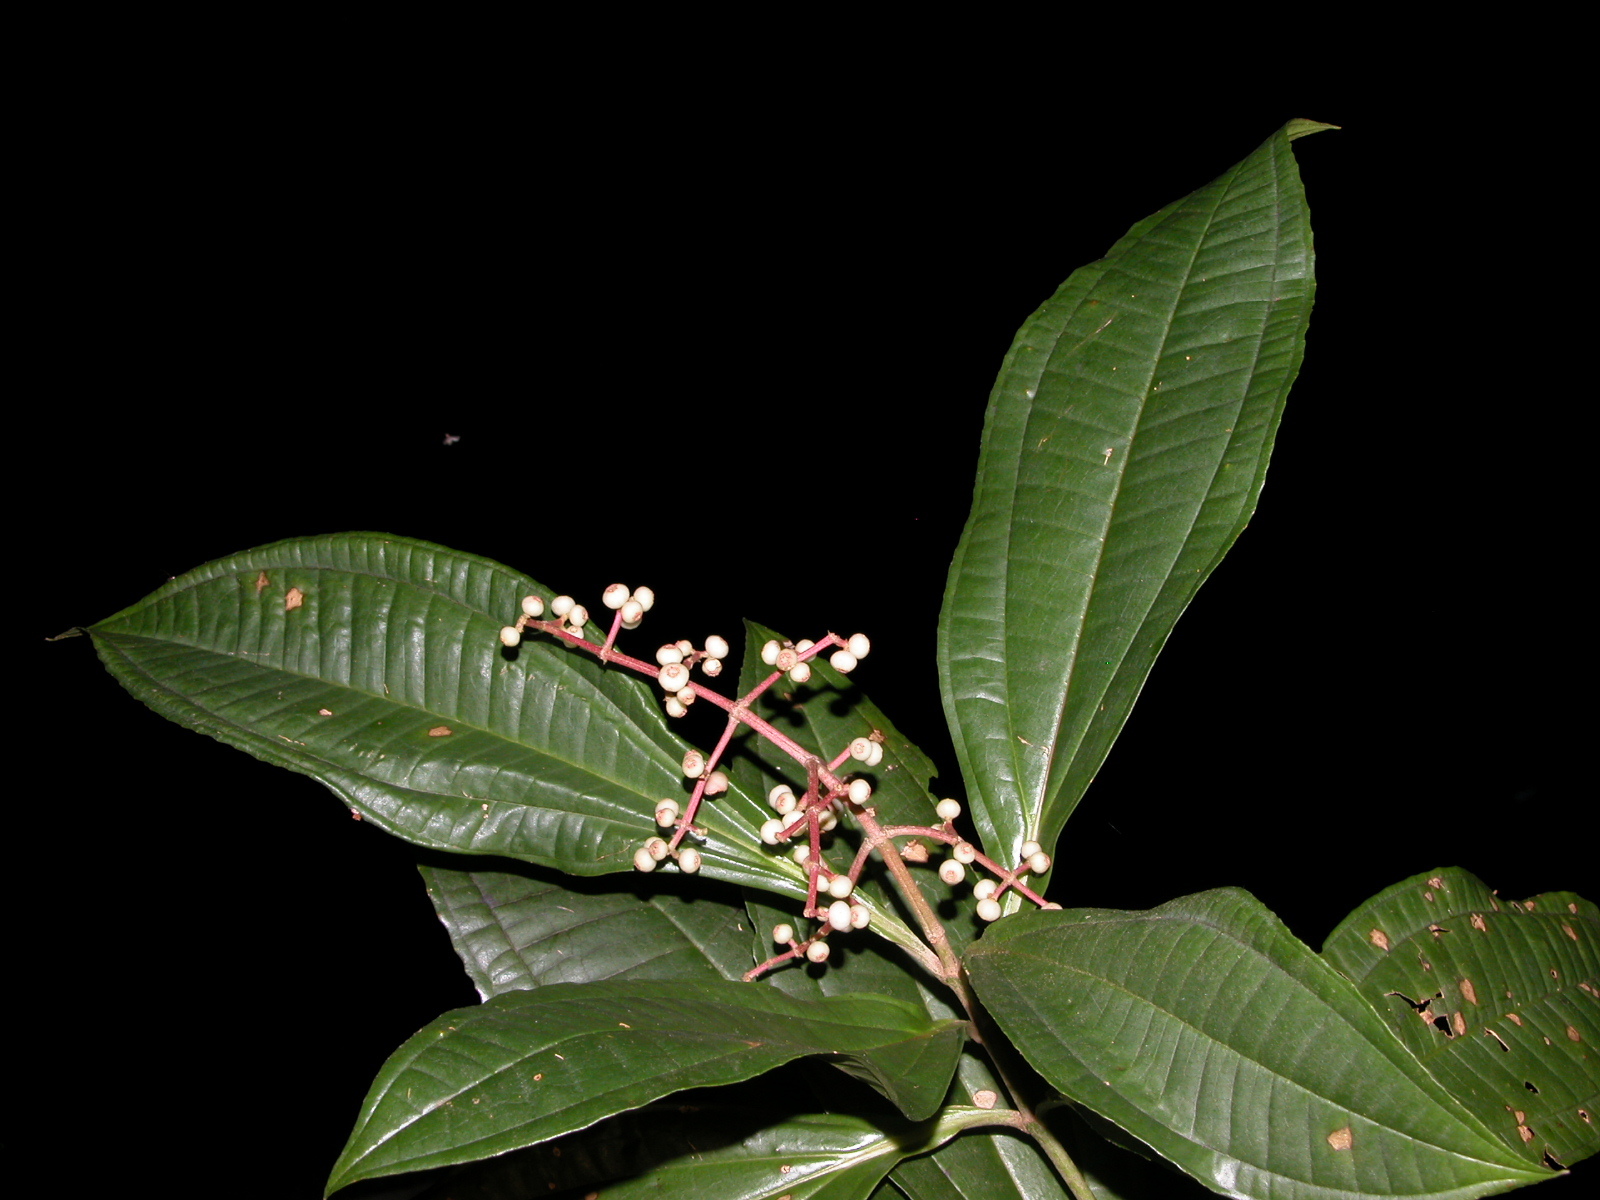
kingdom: Plantae
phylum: Tracheophyta
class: Magnoliopsida
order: Myrtales
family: Melastomataceae
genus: Miconia
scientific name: Miconia appendiculata
